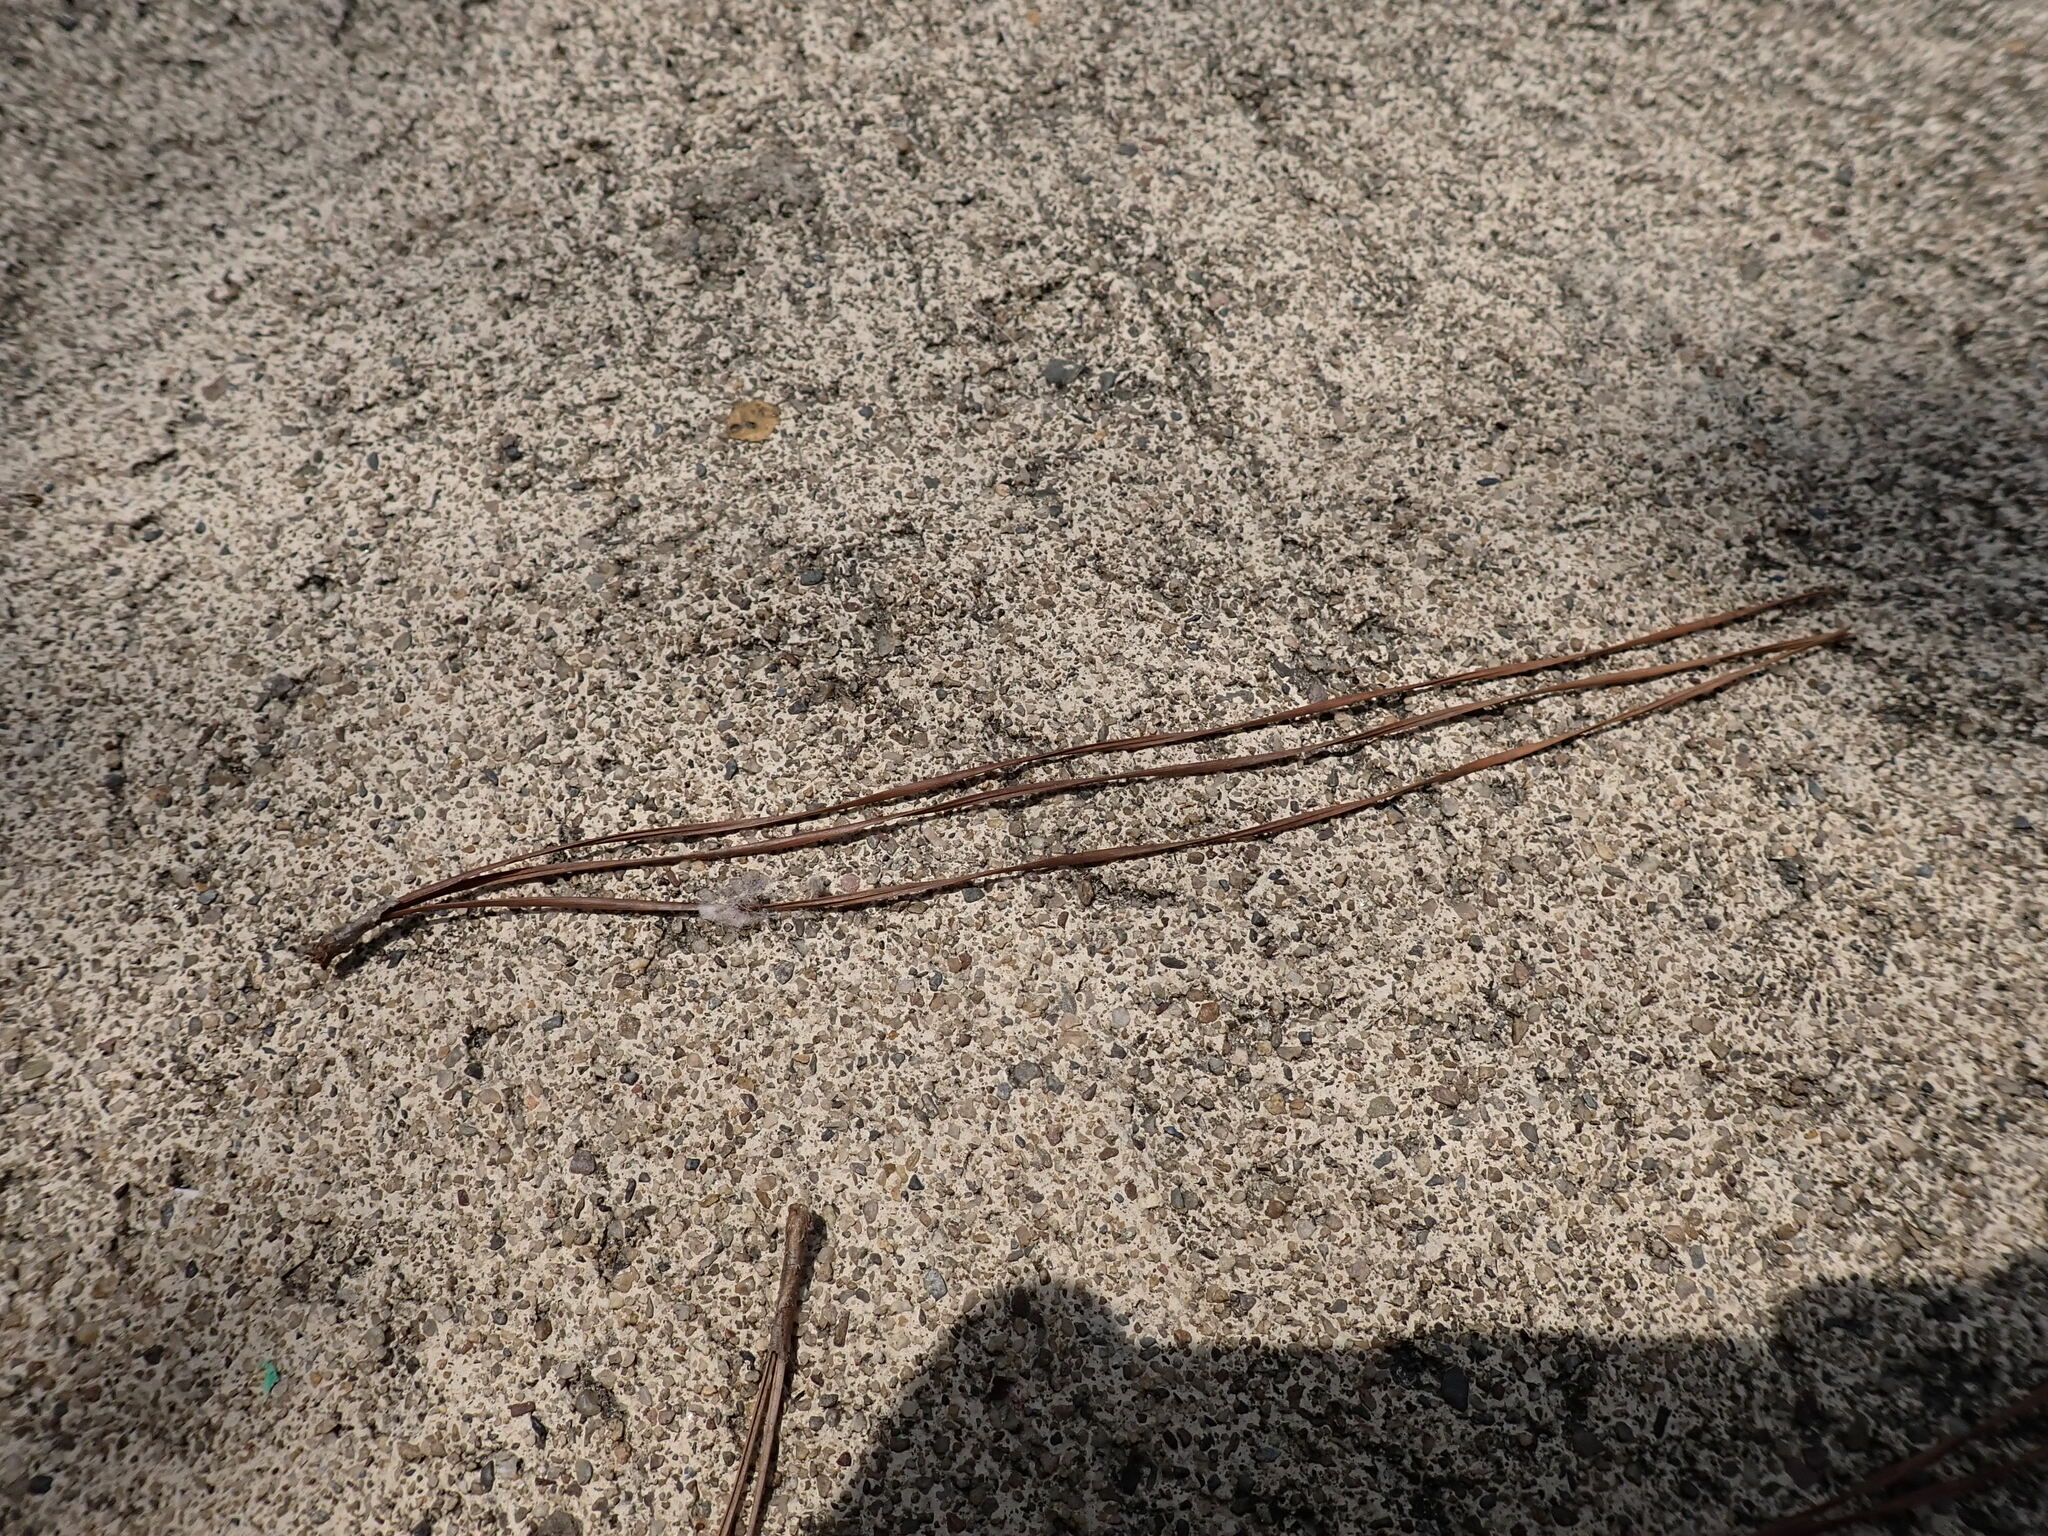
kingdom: Plantae
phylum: Tracheophyta
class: Pinopsida
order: Pinales
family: Pinaceae
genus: Pinus
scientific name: Pinus caribaea
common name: Caribbean pine
